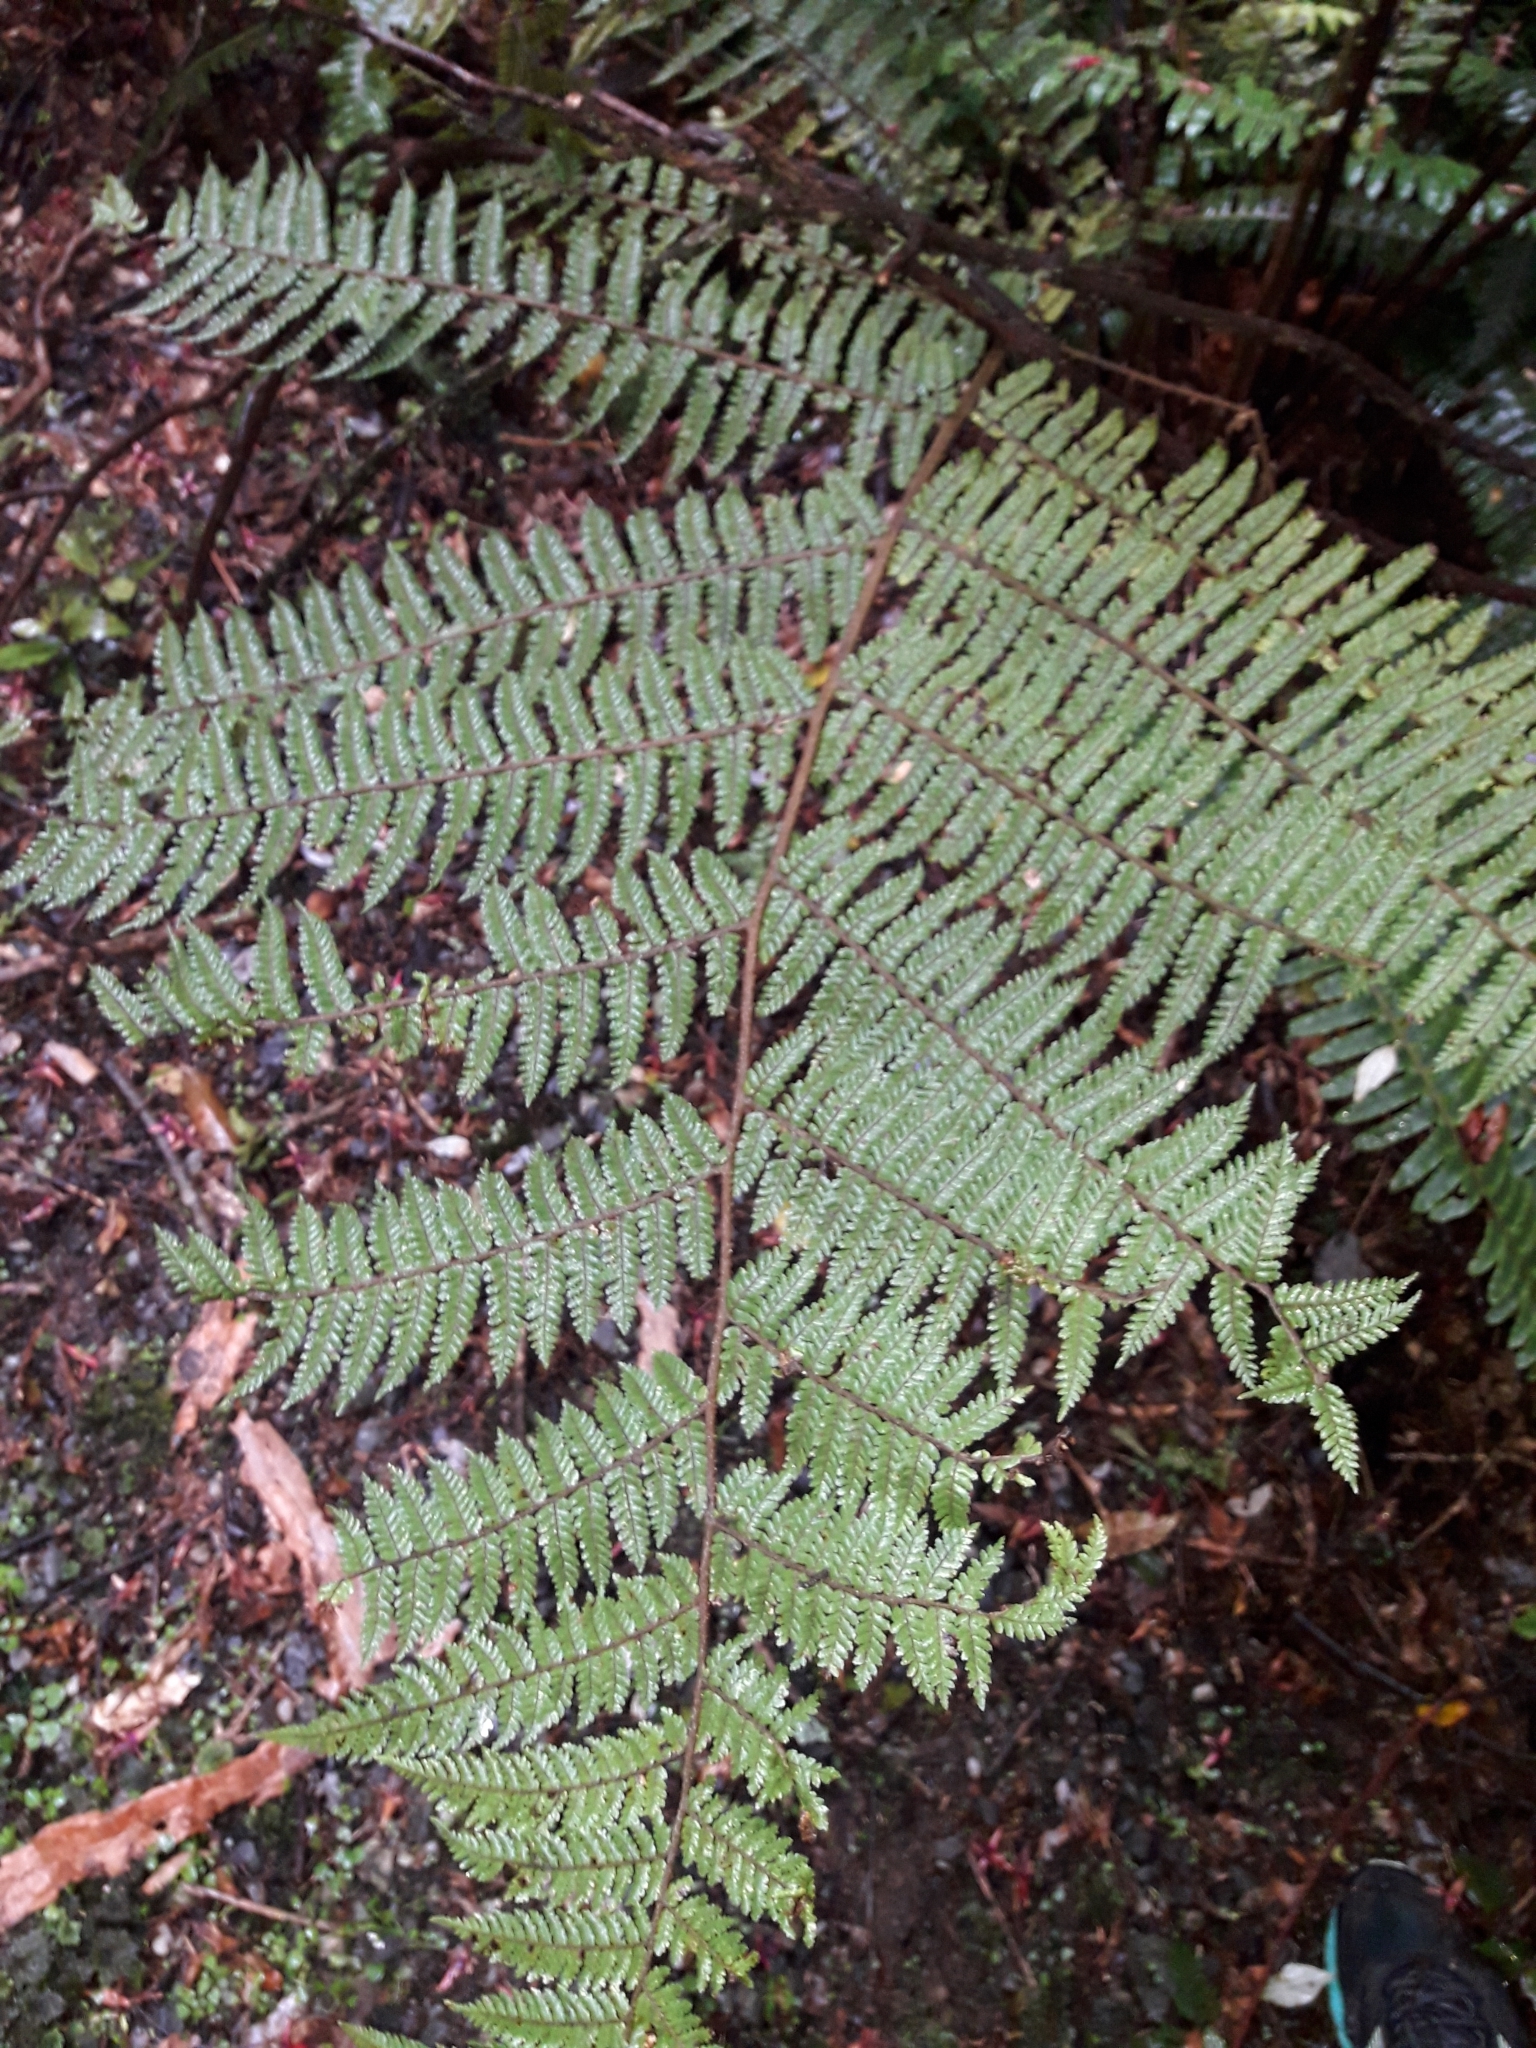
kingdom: Plantae
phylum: Tracheophyta
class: Polypodiopsida
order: Cyatheales
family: Cyatheaceae
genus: Alsophila
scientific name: Alsophila colensoi
